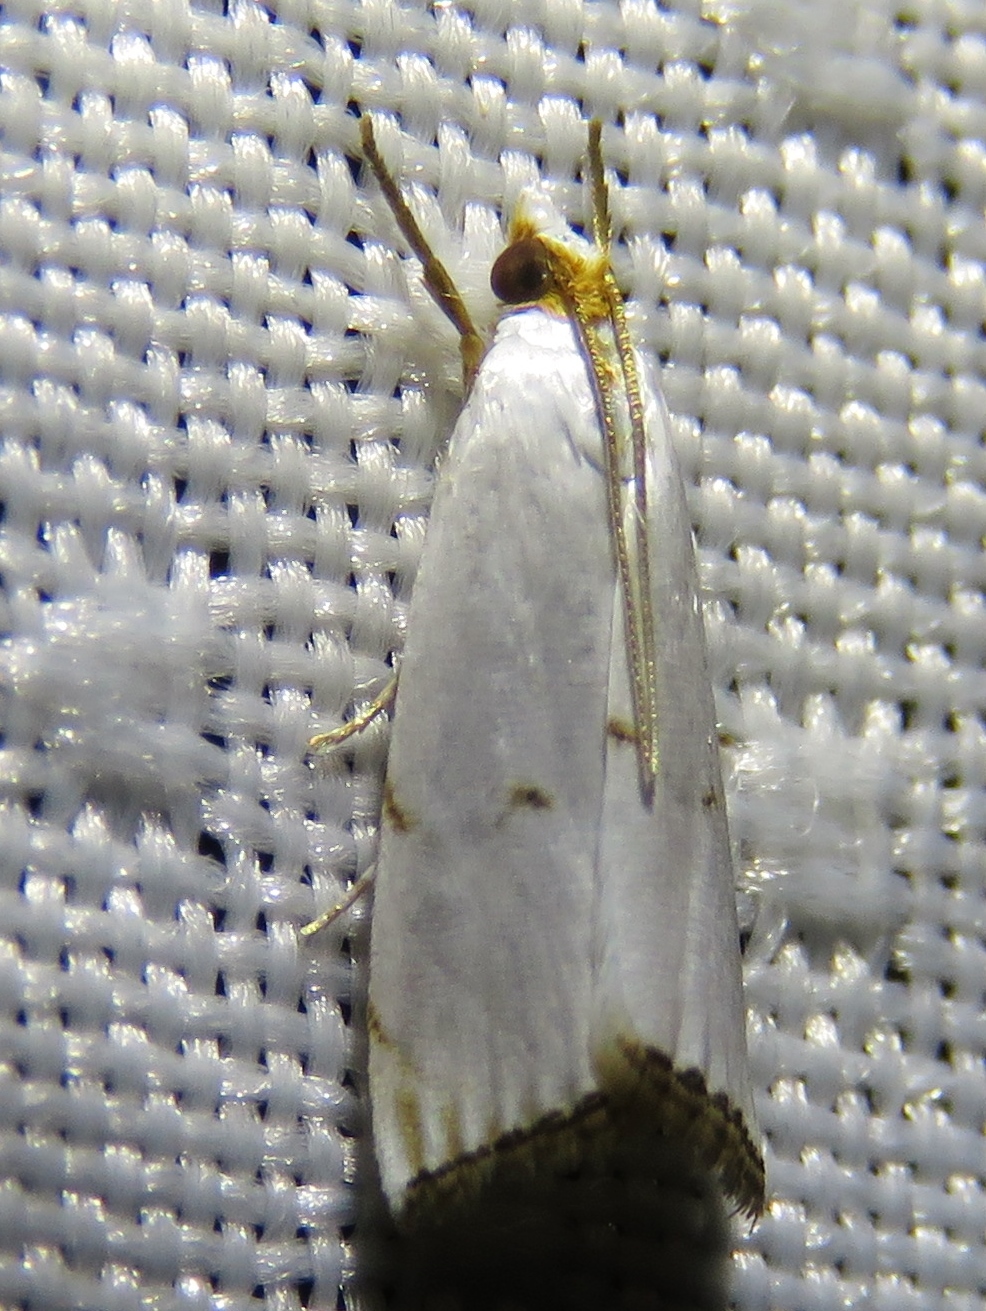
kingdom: Animalia
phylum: Arthropoda
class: Insecta
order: Lepidoptera
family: Crambidae
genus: Argyria
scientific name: Argyria pusillalis
